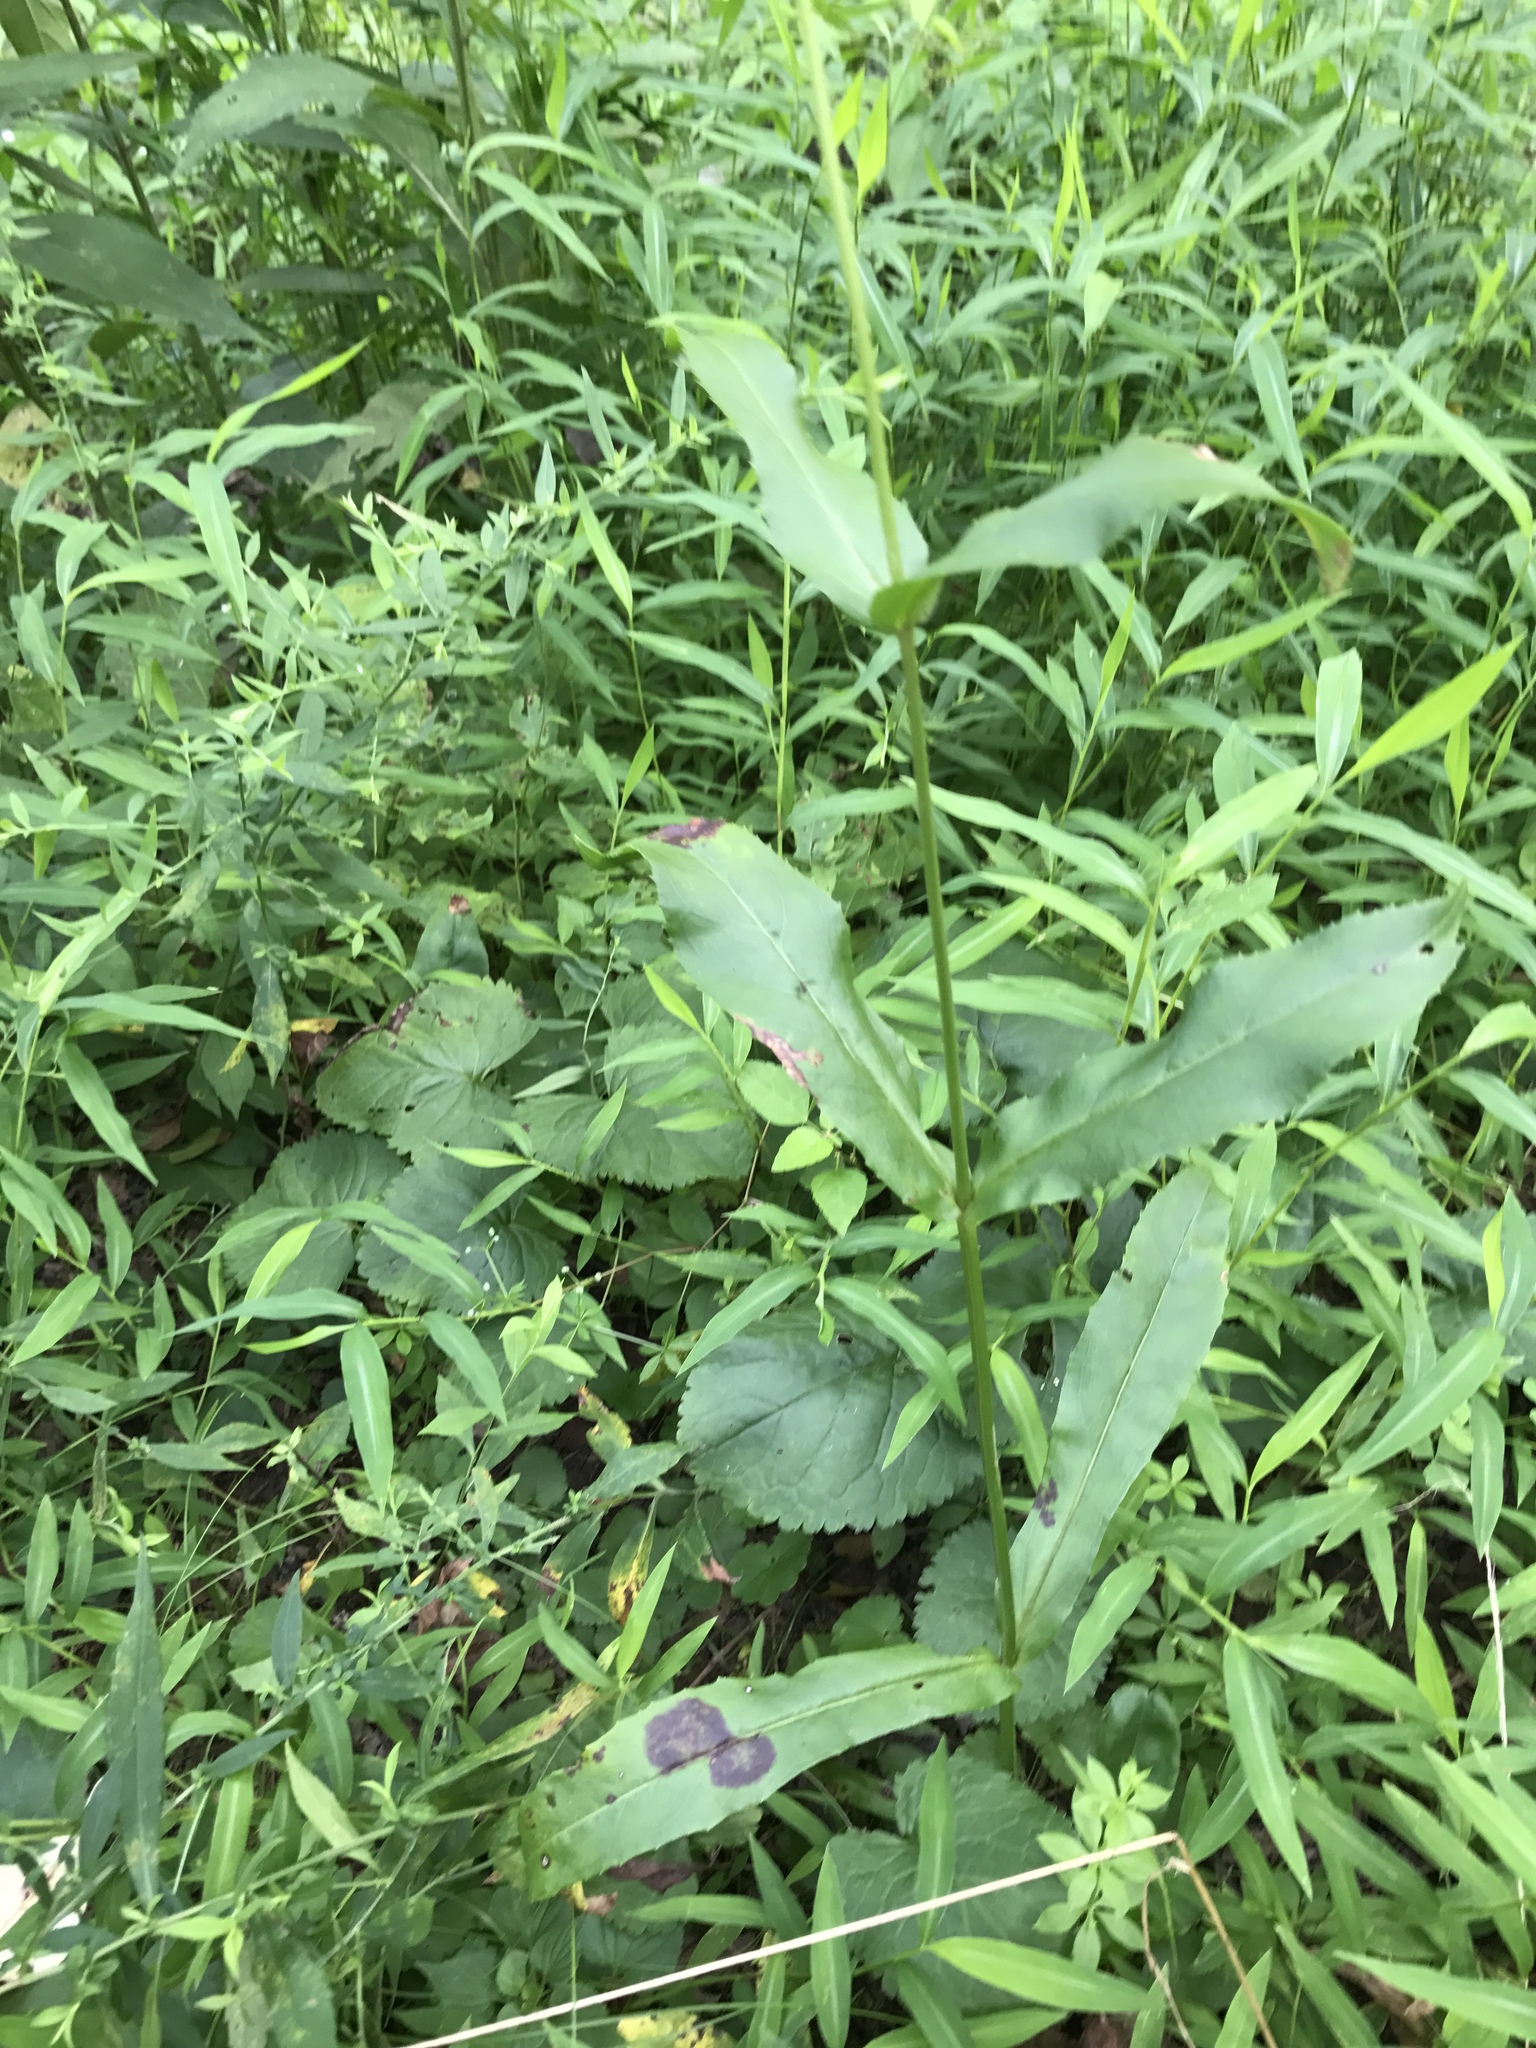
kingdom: Plantae
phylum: Tracheophyta
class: Magnoliopsida
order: Lamiales
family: Plantaginaceae
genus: Penstemon
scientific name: Penstemon digitalis
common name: Foxglove beardtongue
